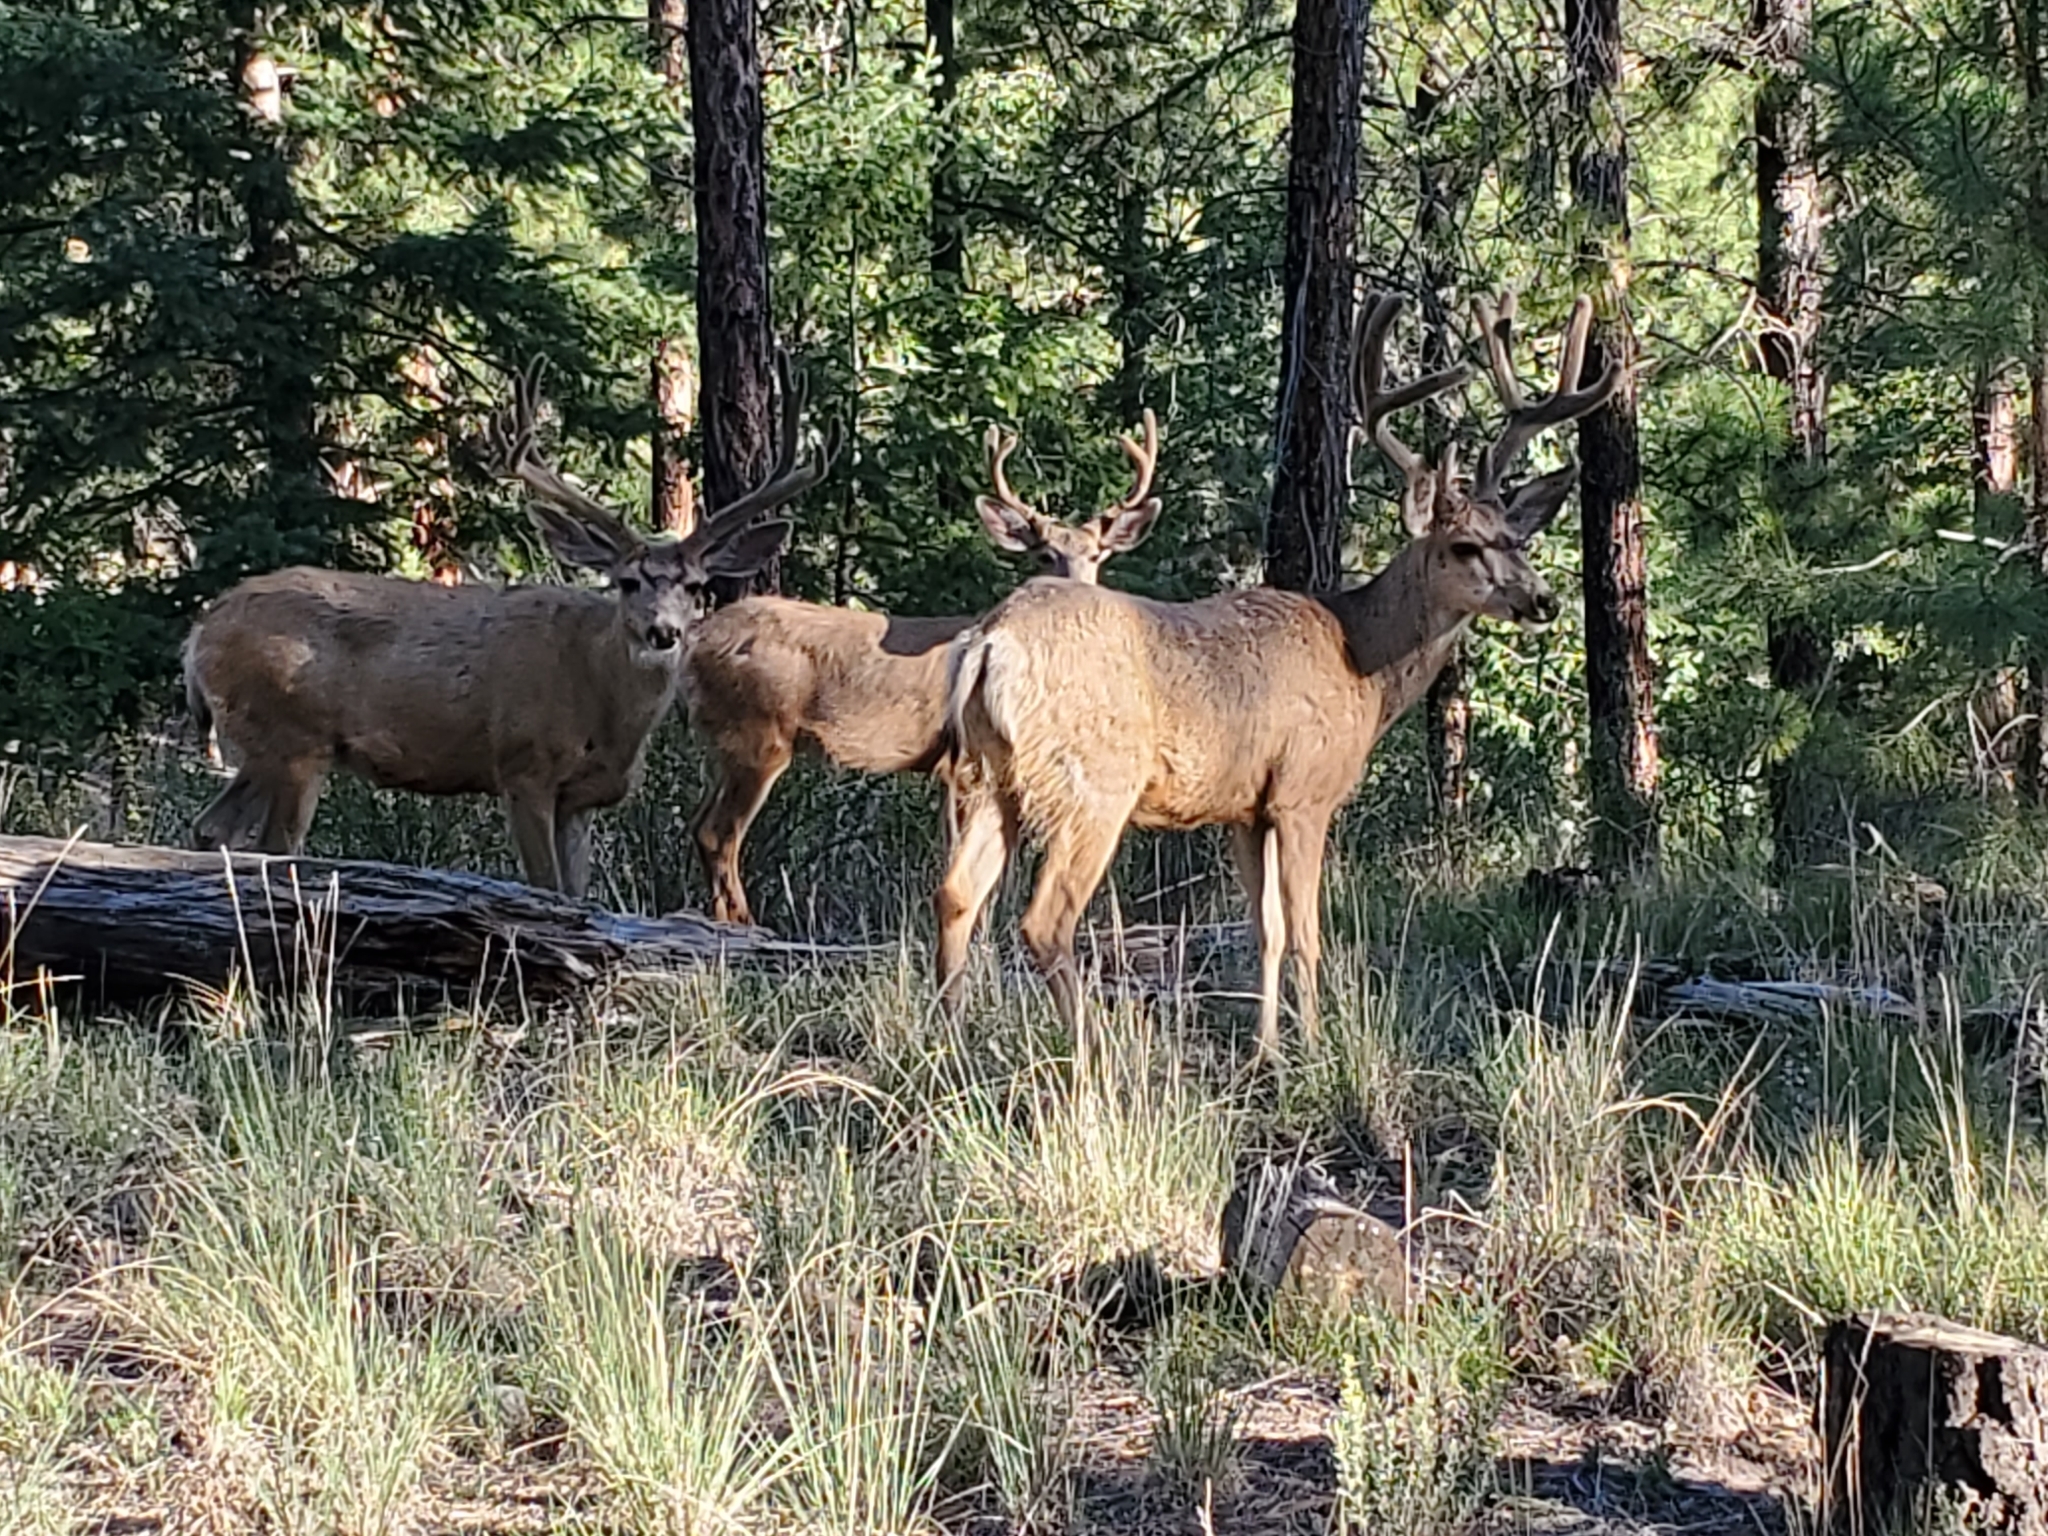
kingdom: Animalia
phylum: Chordata
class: Mammalia
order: Artiodactyla
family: Cervidae
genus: Odocoileus
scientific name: Odocoileus hemionus
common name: Mule deer
